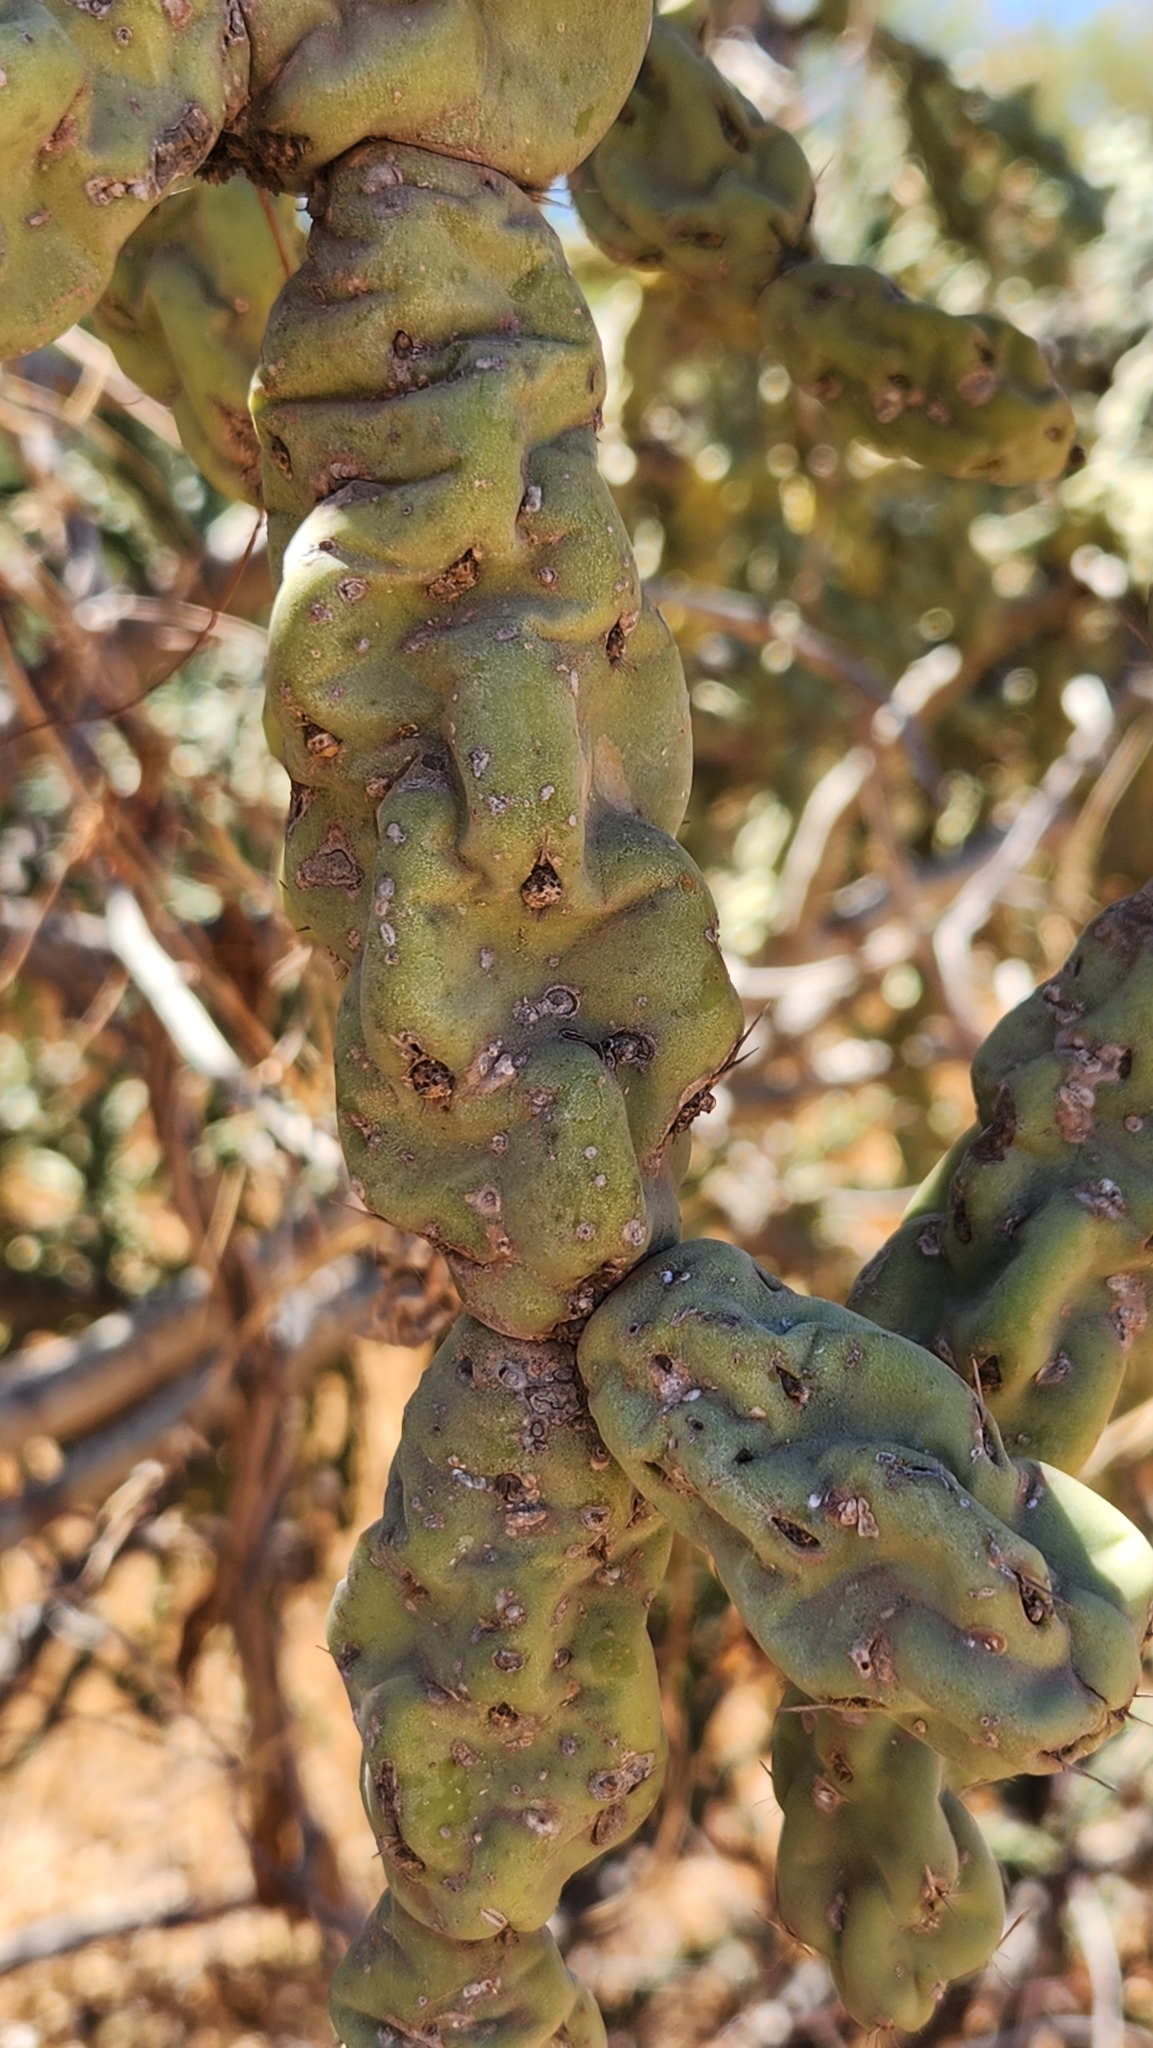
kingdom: Plantae
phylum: Tracheophyta
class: Magnoliopsida
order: Caryophyllales
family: Cactaceae
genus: Cylindropuntia
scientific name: Cylindropuntia cholla
